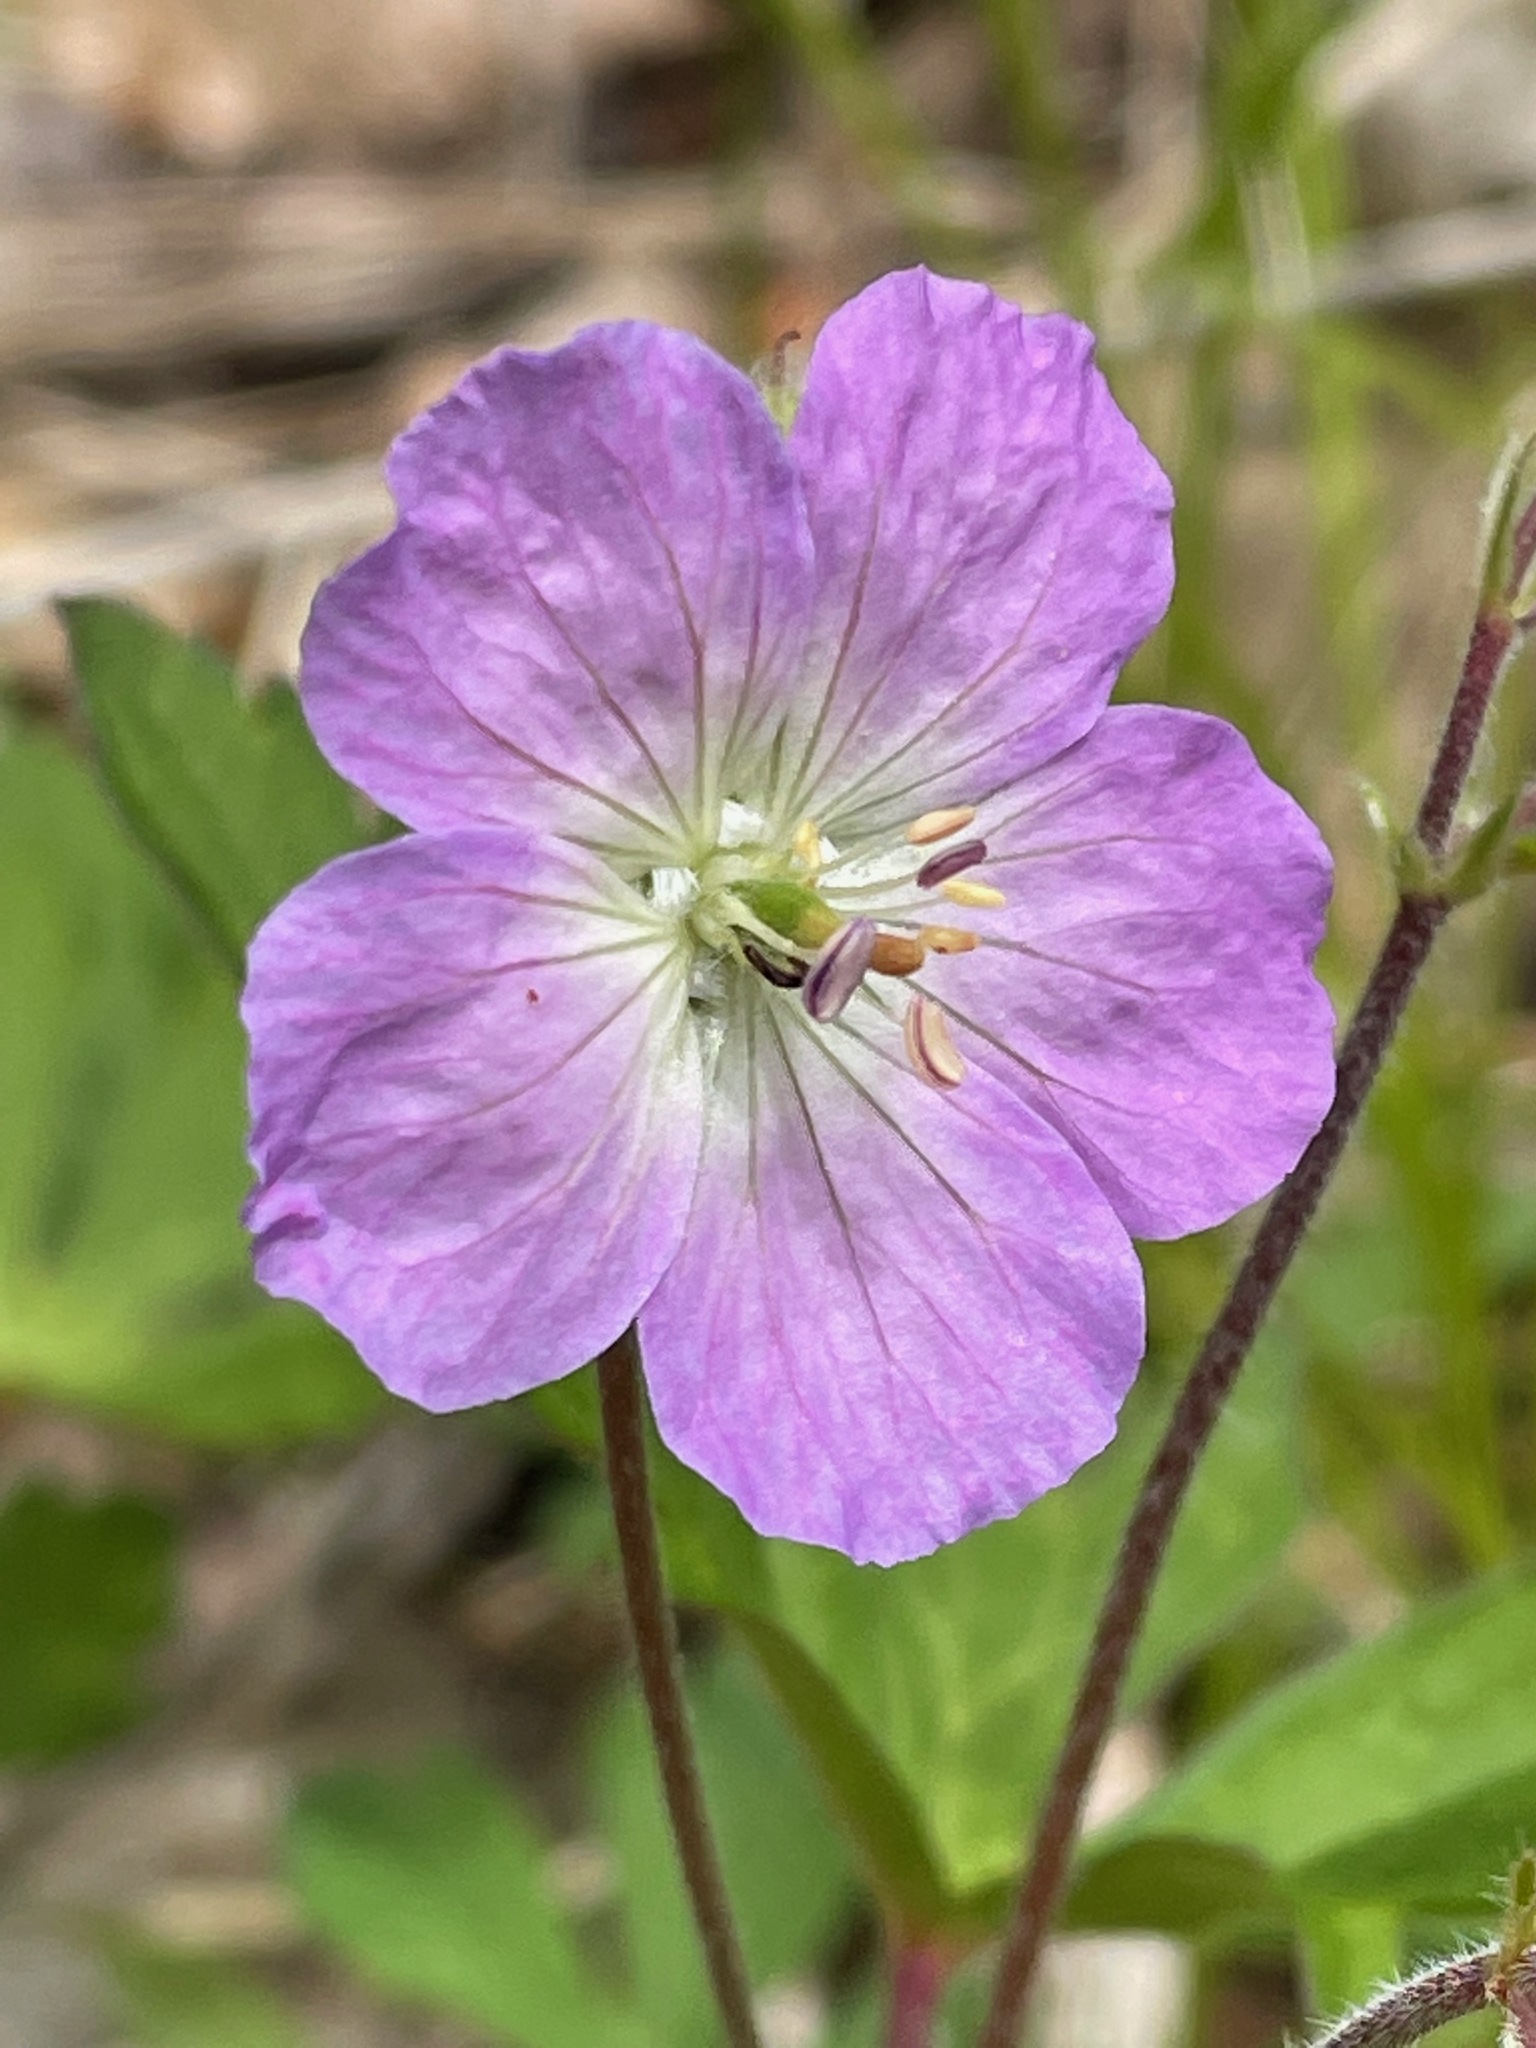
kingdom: Plantae
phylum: Tracheophyta
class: Magnoliopsida
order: Geraniales
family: Geraniaceae
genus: Geranium
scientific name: Geranium maculatum
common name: Spotted geranium
